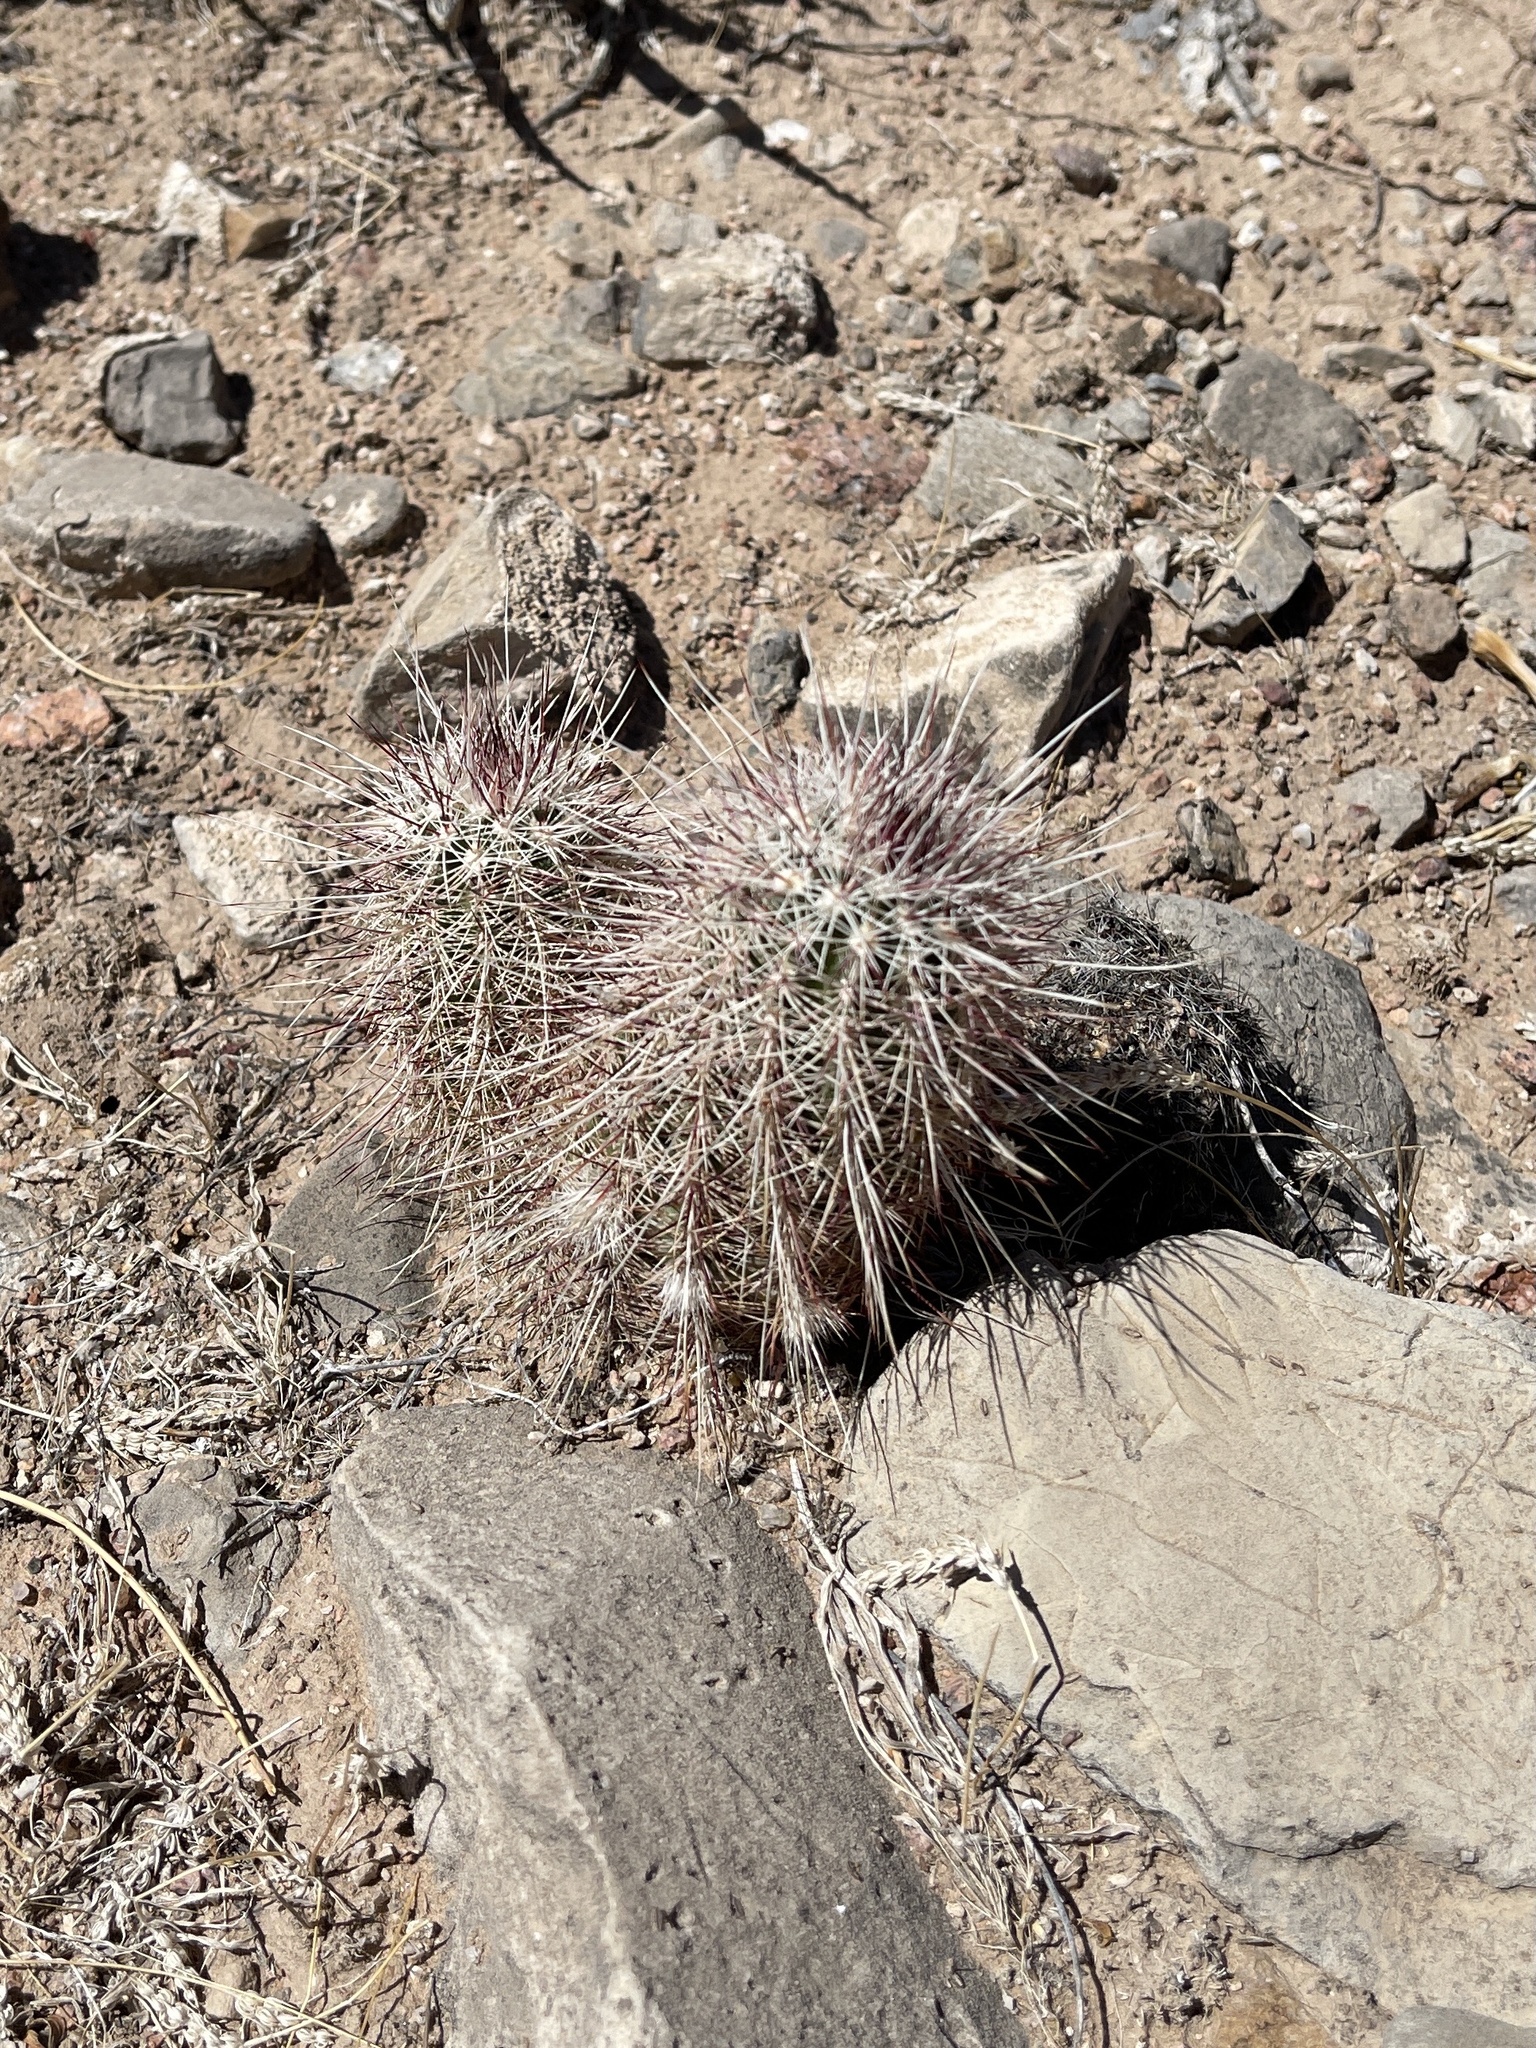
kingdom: Plantae
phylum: Tracheophyta
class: Magnoliopsida
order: Caryophyllales
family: Cactaceae
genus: Echinocereus
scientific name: Echinocereus viridiflorus
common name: Nylon hedgehog cactus
